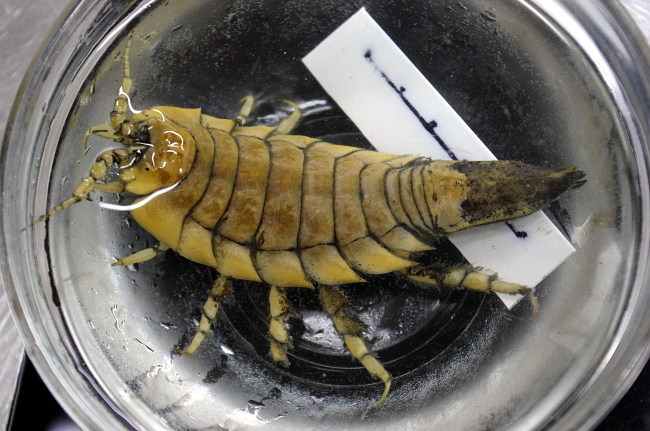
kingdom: Animalia
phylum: Arthropoda
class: Malacostraca
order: Isopoda
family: Chaetiliidae
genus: Saduria
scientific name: Saduria sibirica
